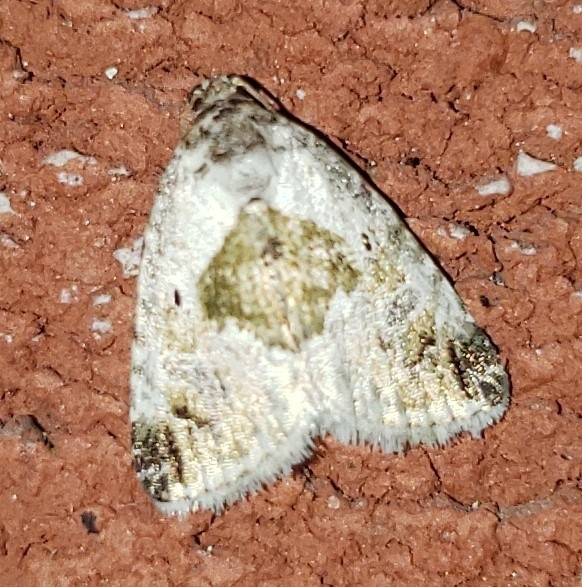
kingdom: Animalia
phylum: Arthropoda
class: Insecta
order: Lepidoptera
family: Noctuidae
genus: Maliattha
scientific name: Maliattha synochitis
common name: Black-dotted glyph
